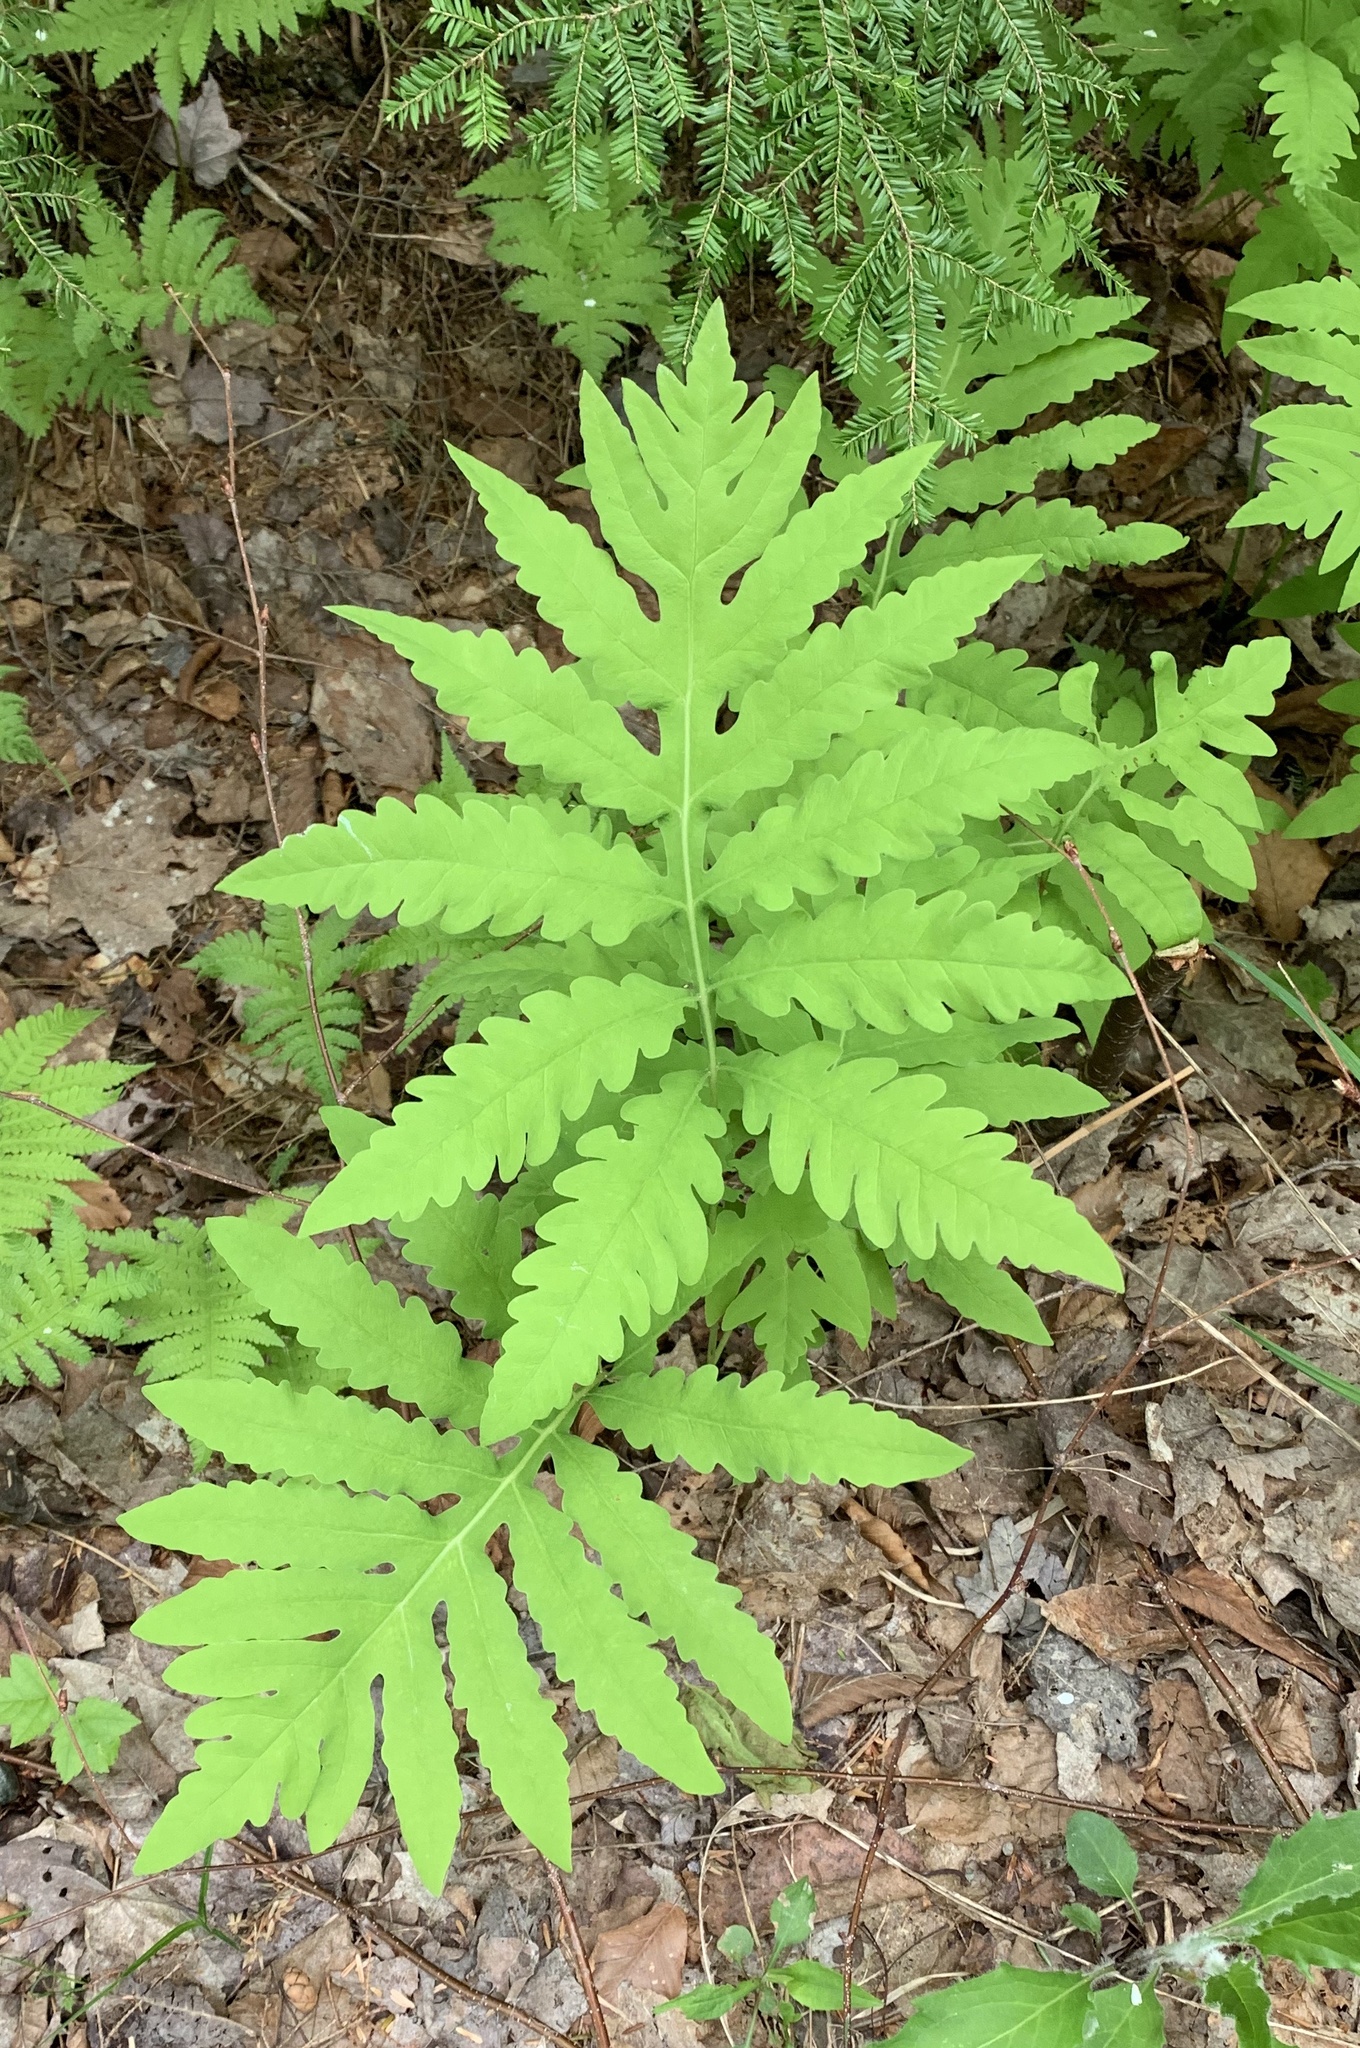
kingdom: Plantae
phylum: Tracheophyta
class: Polypodiopsida
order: Polypodiales
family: Onocleaceae
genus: Onoclea
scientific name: Onoclea sensibilis
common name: Sensitive fern
